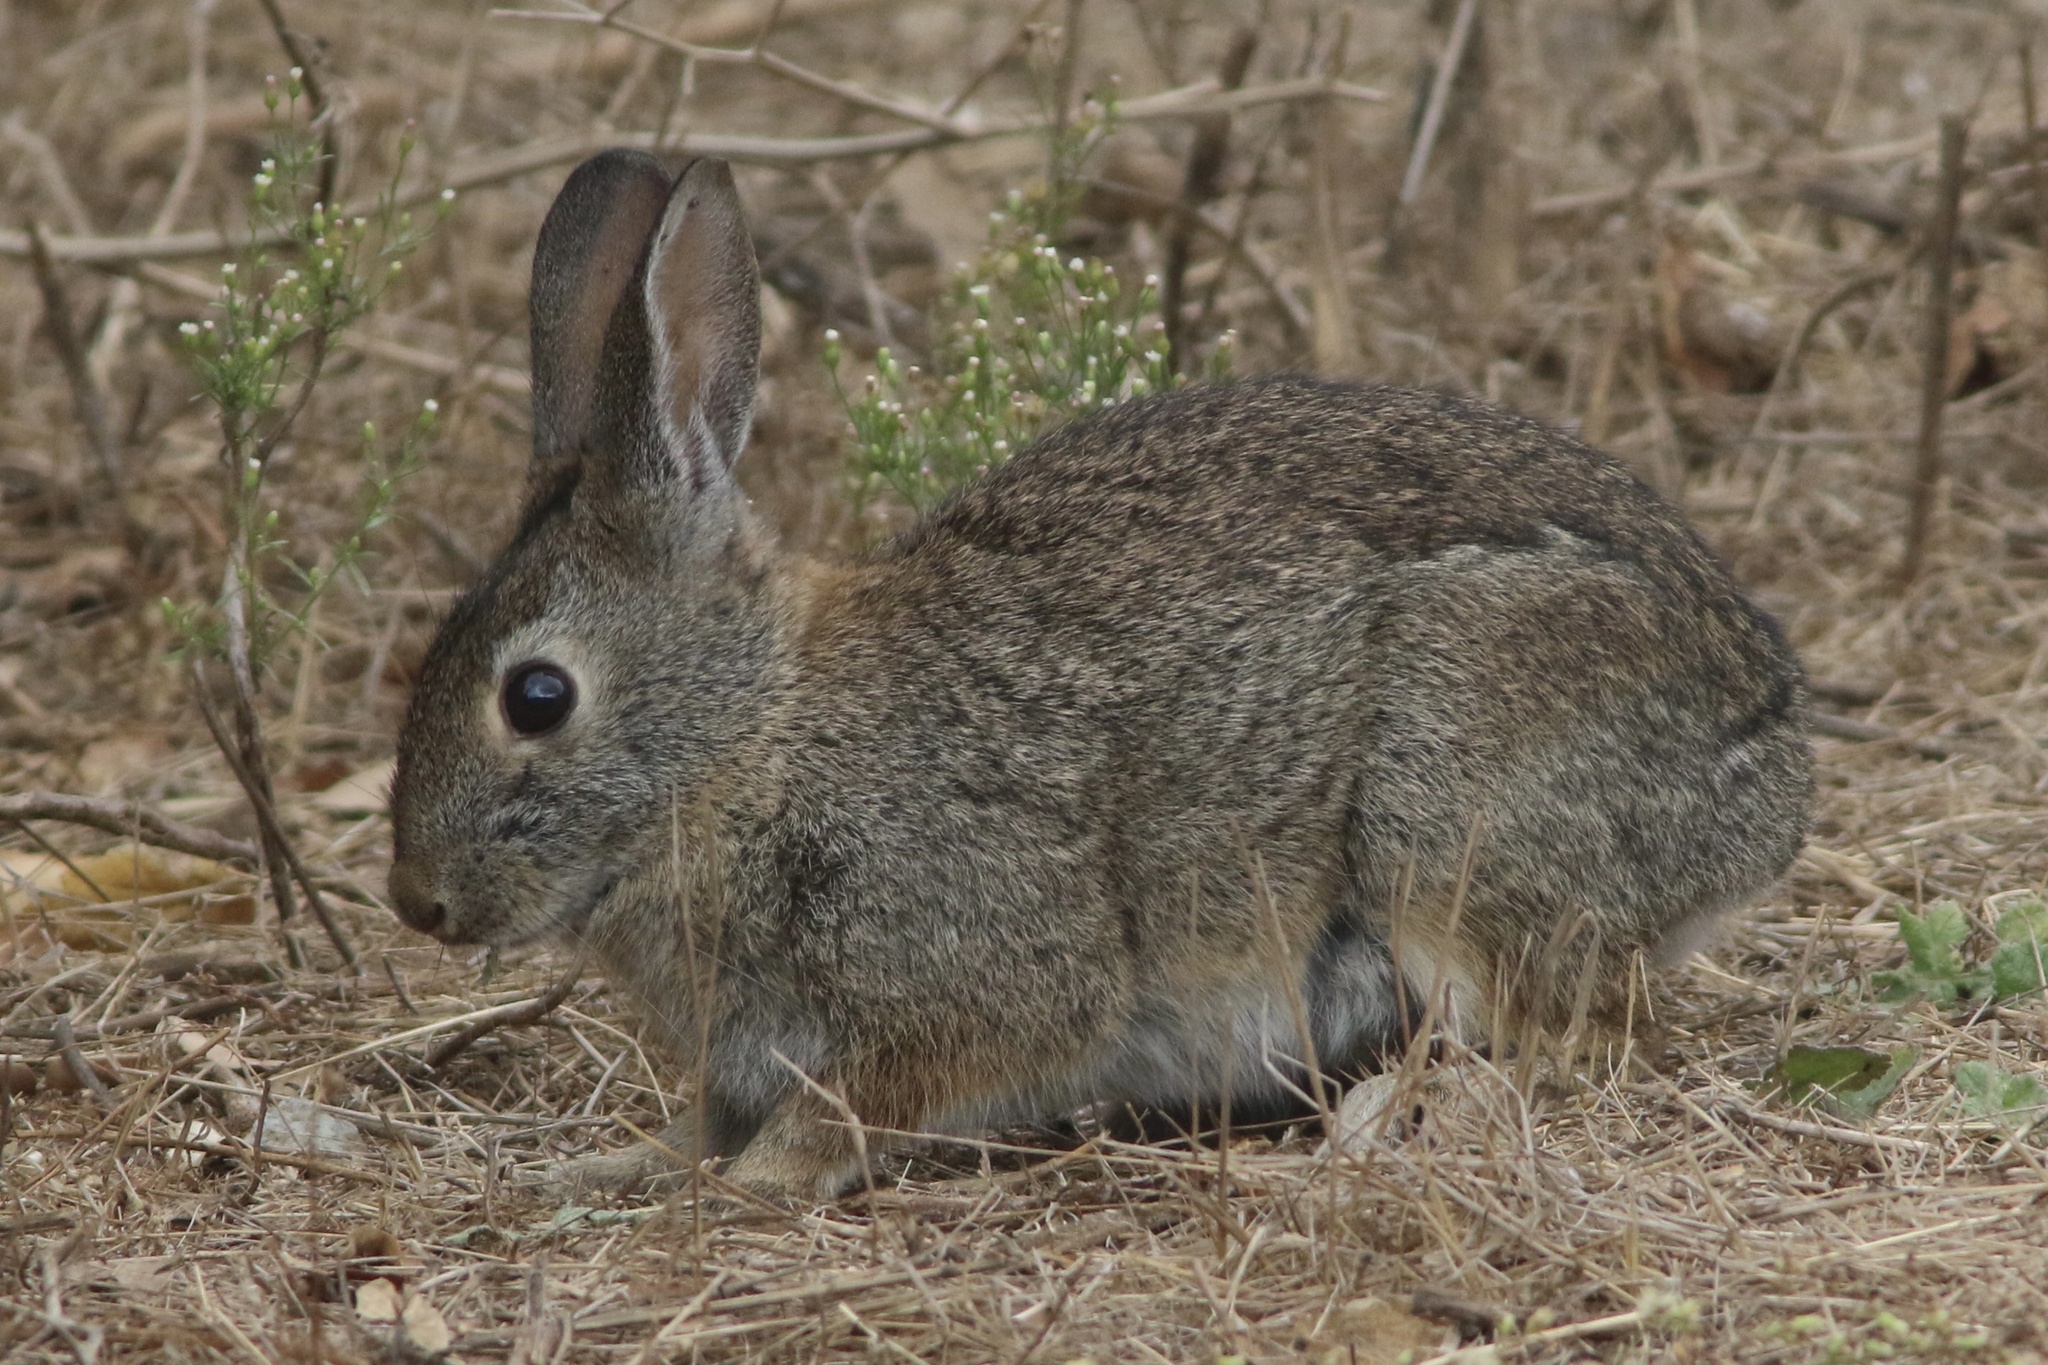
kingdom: Animalia
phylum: Chordata
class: Mammalia
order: Lagomorpha
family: Leporidae
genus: Sylvilagus
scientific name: Sylvilagus bachmani
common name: Brush rabbit
